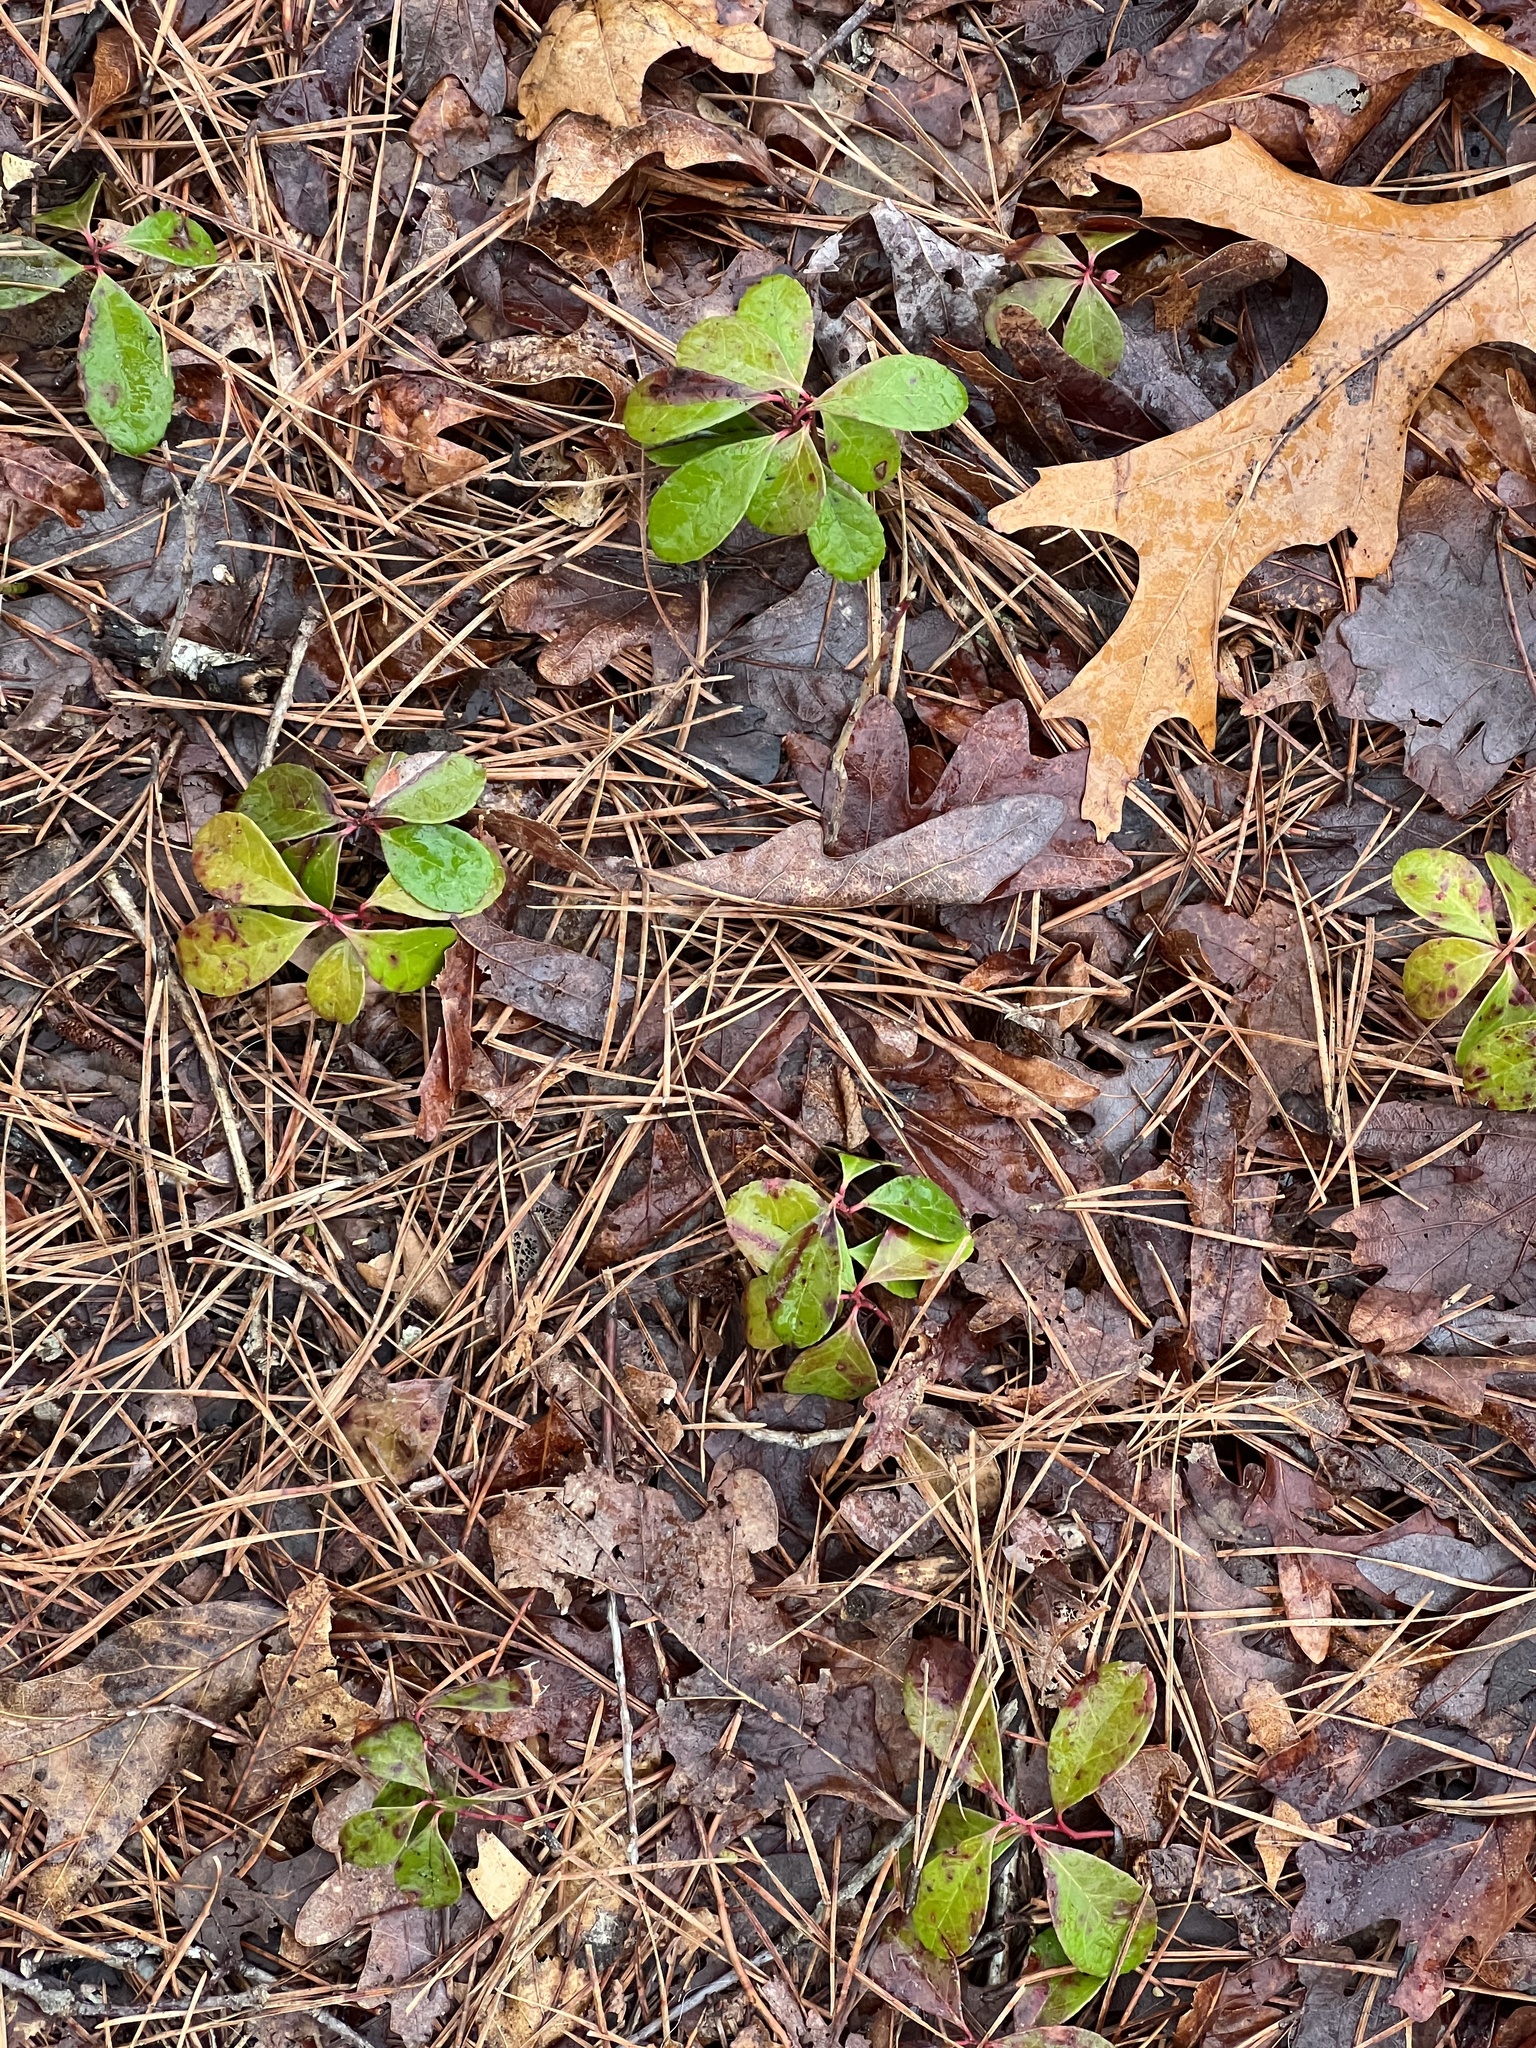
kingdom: Plantae
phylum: Tracheophyta
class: Magnoliopsida
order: Ericales
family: Ericaceae
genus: Gaultheria
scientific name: Gaultheria procumbens
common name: Checkerberry
